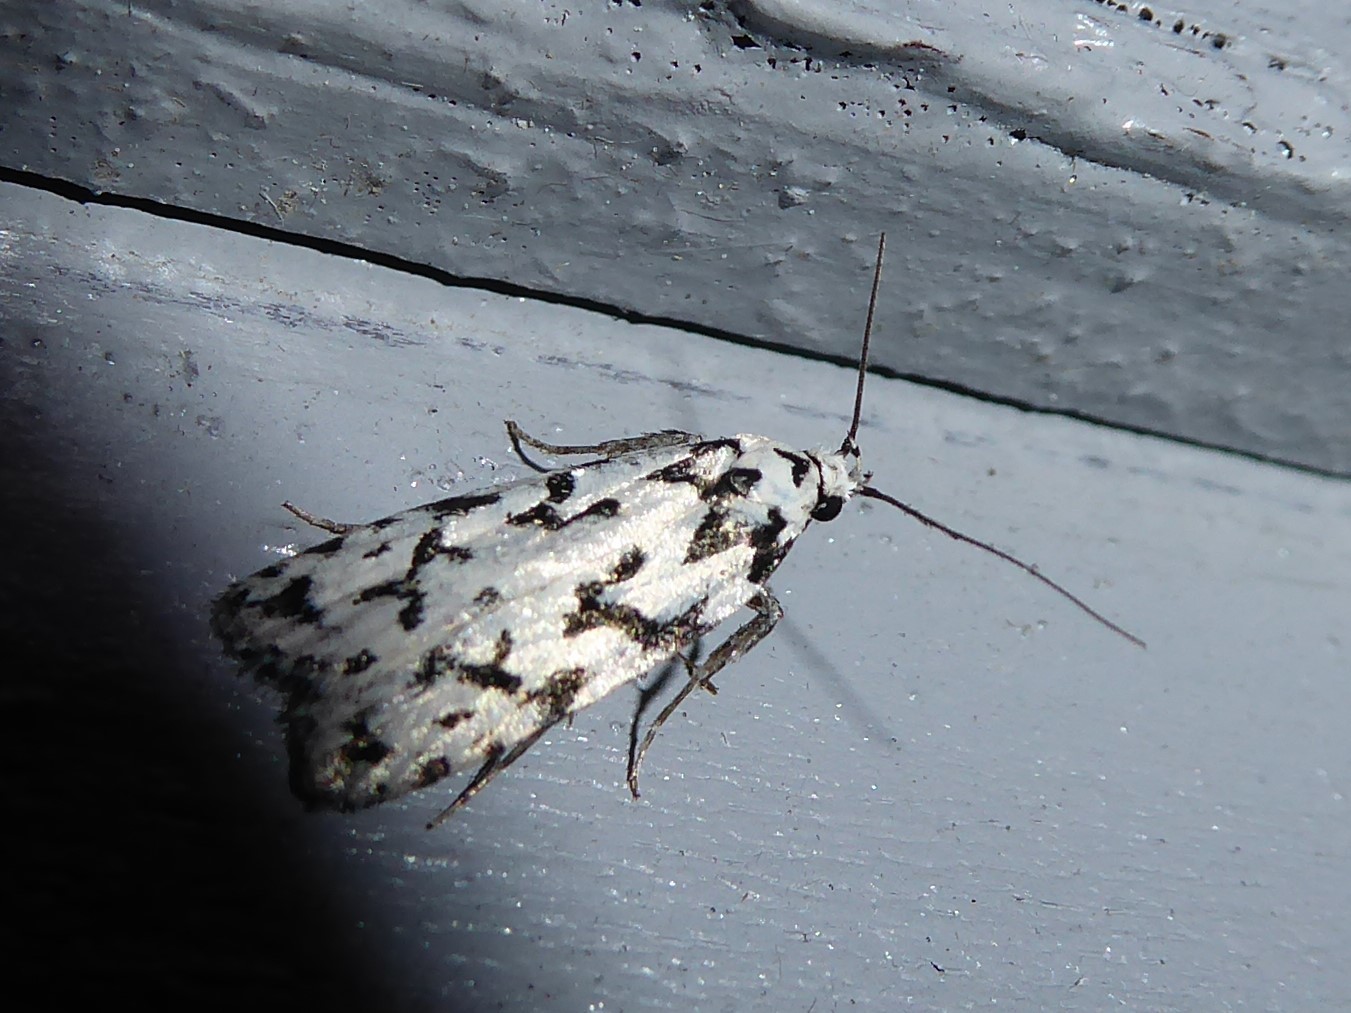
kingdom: Animalia
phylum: Arthropoda
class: Insecta
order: Lepidoptera
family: Oecophoridae
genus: Izatha
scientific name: Izatha katadiktya
